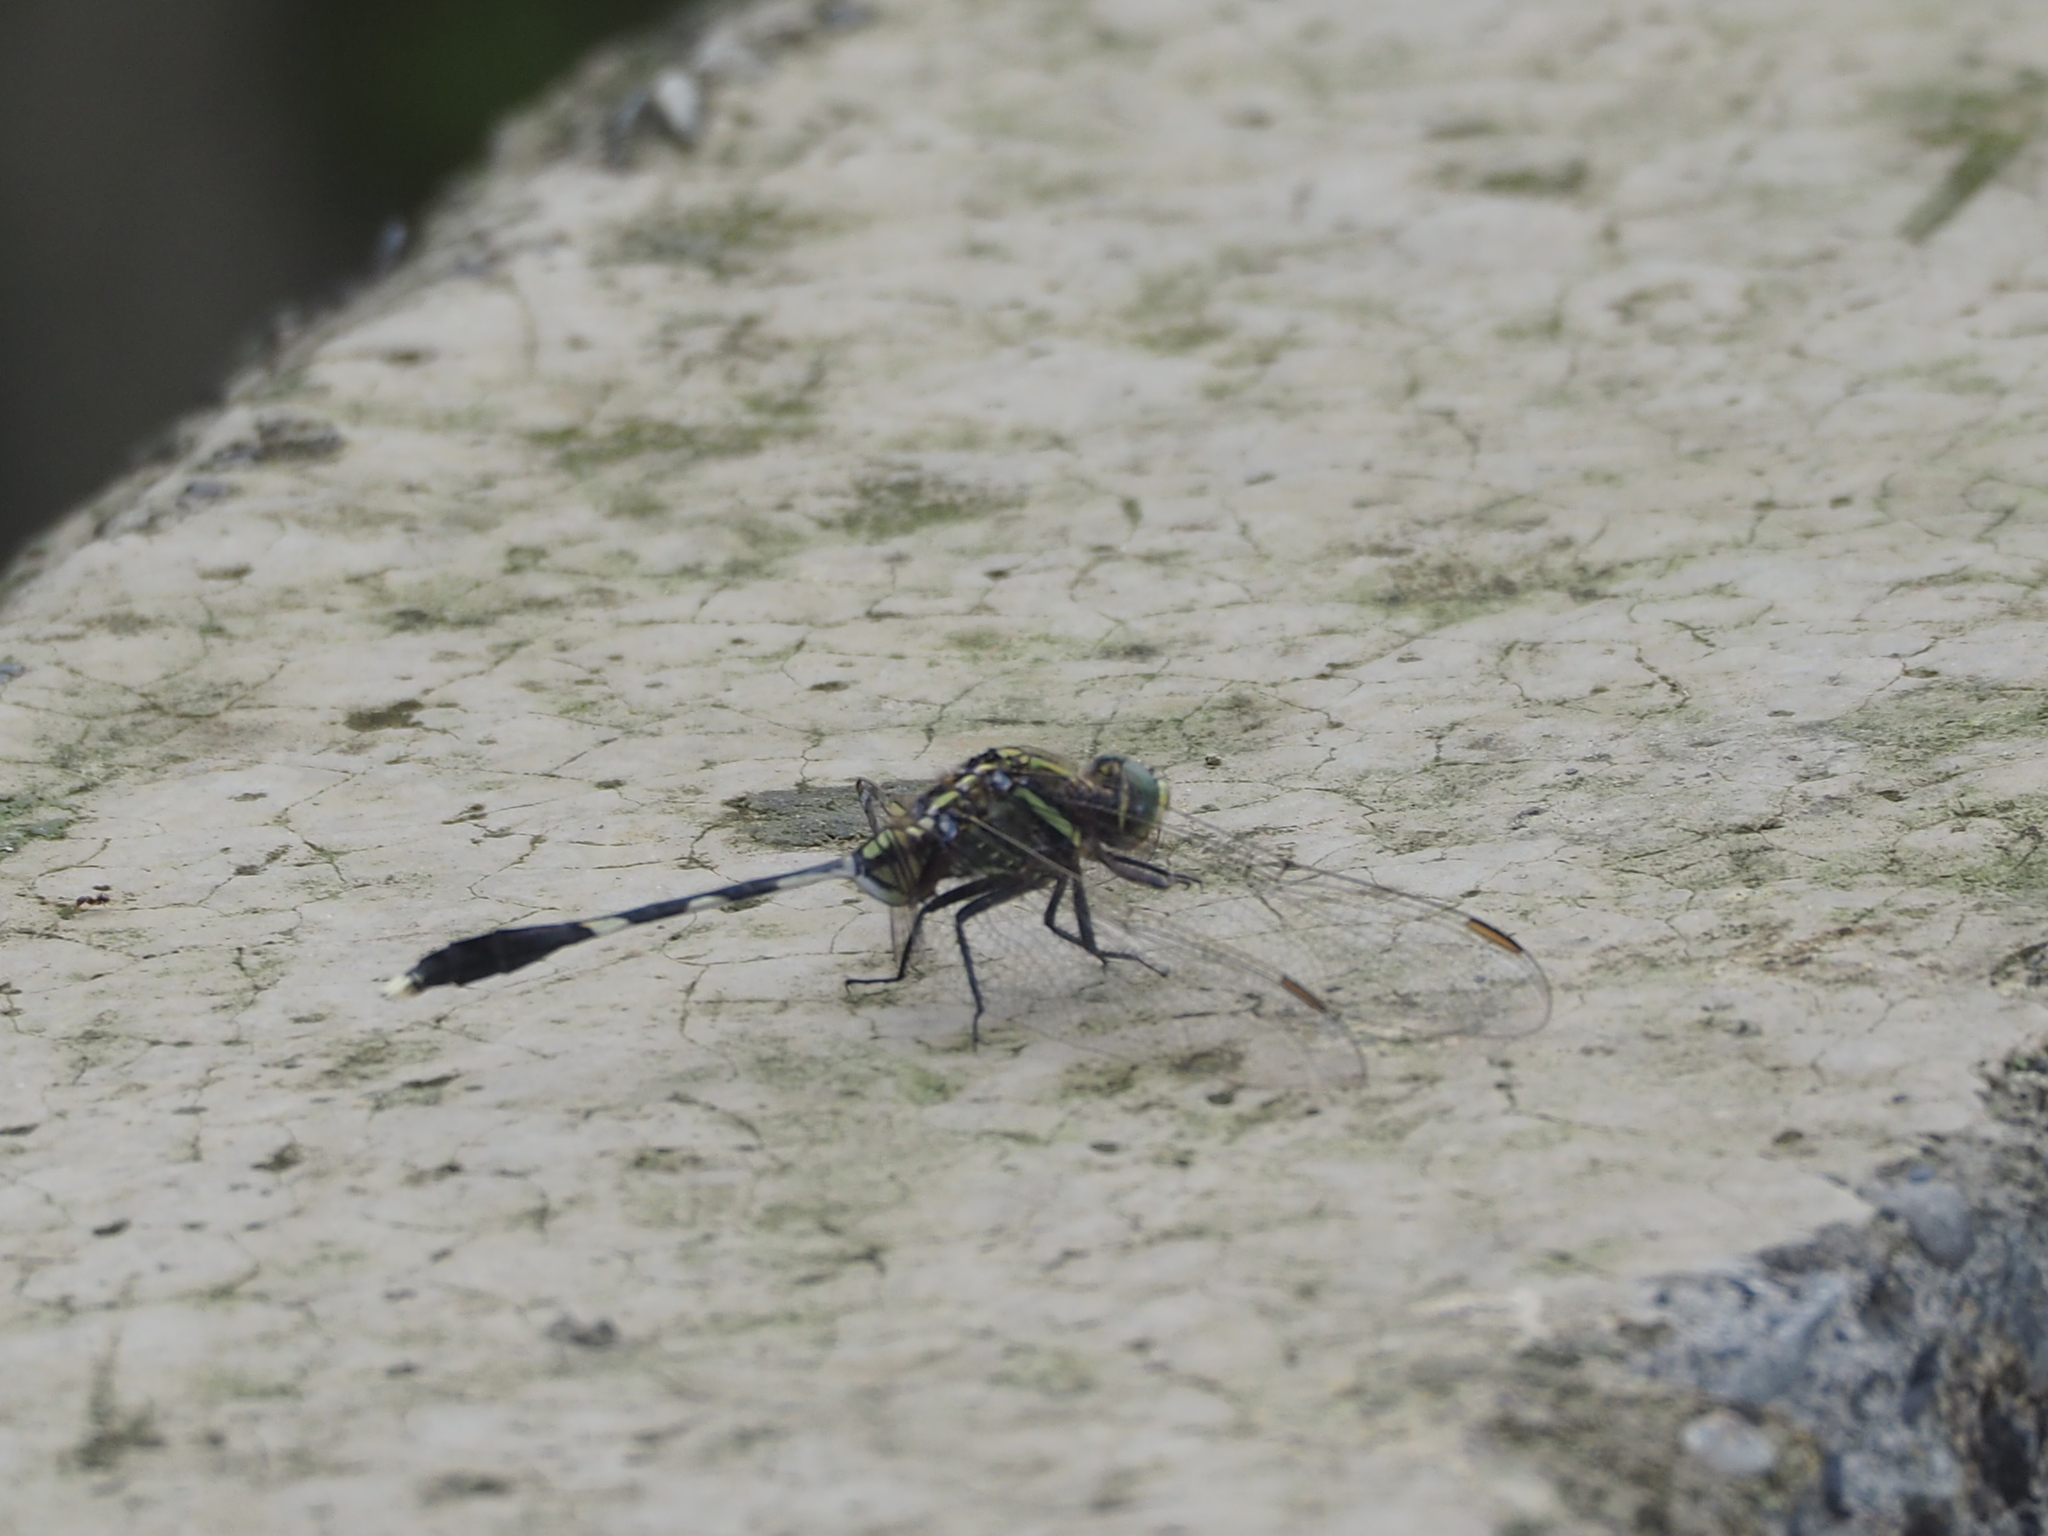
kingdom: Animalia
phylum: Arthropoda
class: Insecta
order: Odonata
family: Libellulidae
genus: Orthetrum
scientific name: Orthetrum sabina
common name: Slender skimmer
